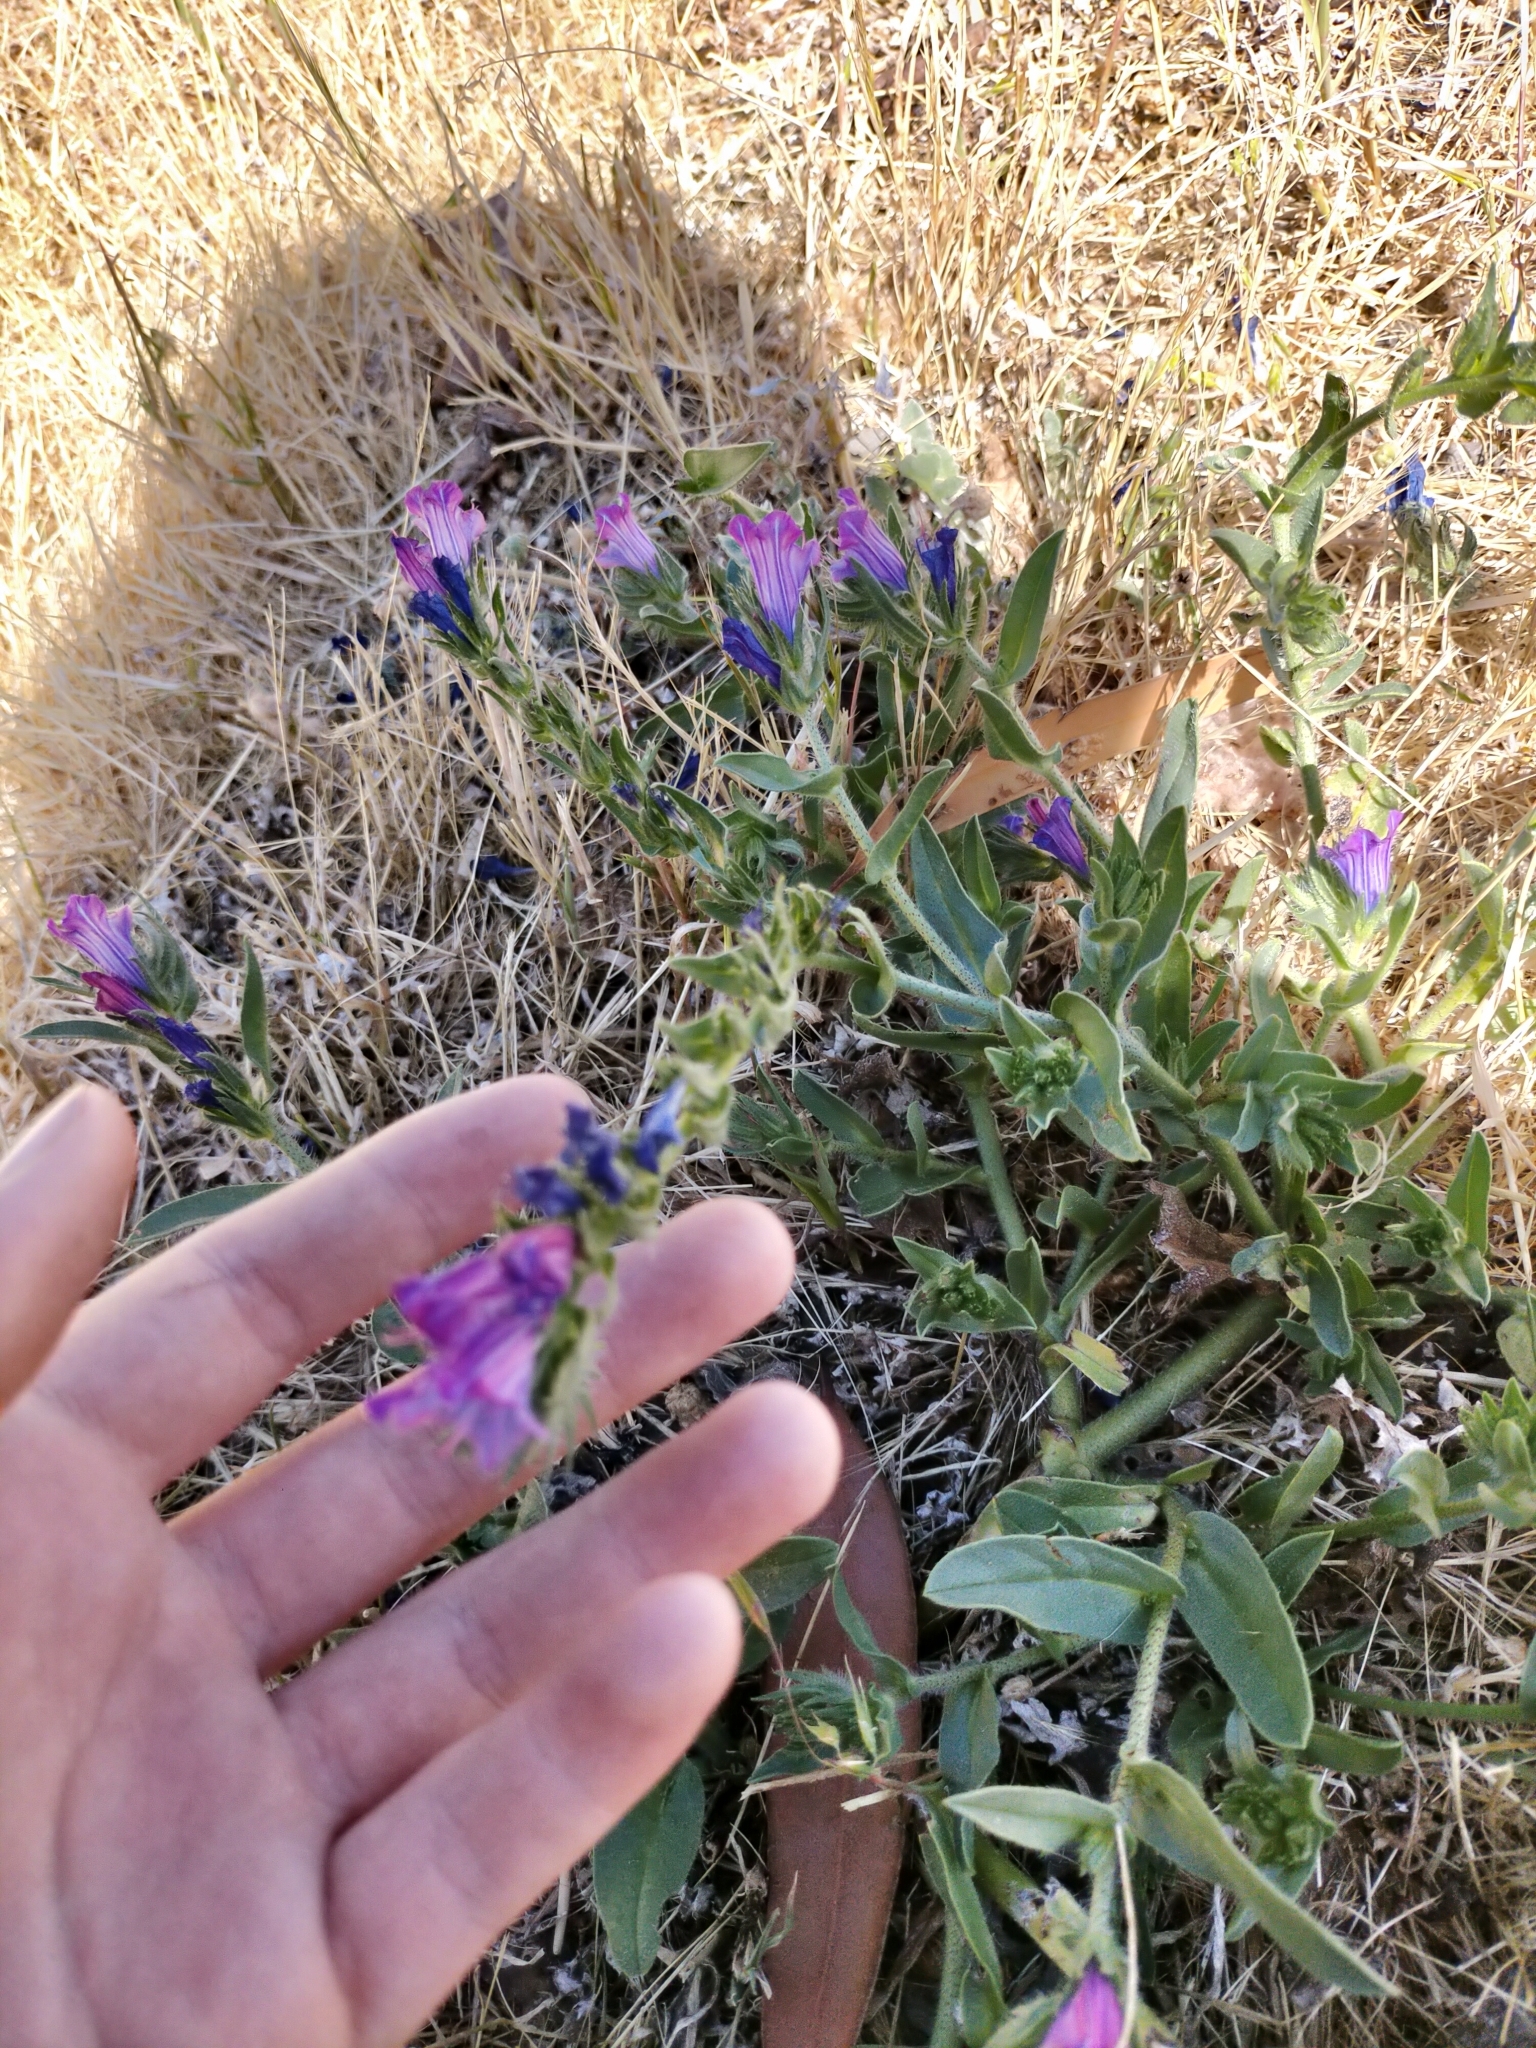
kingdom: Plantae
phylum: Tracheophyta
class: Magnoliopsida
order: Boraginales
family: Boraginaceae
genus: Echium
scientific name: Echium plantagineum
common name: Purple viper's-bugloss
